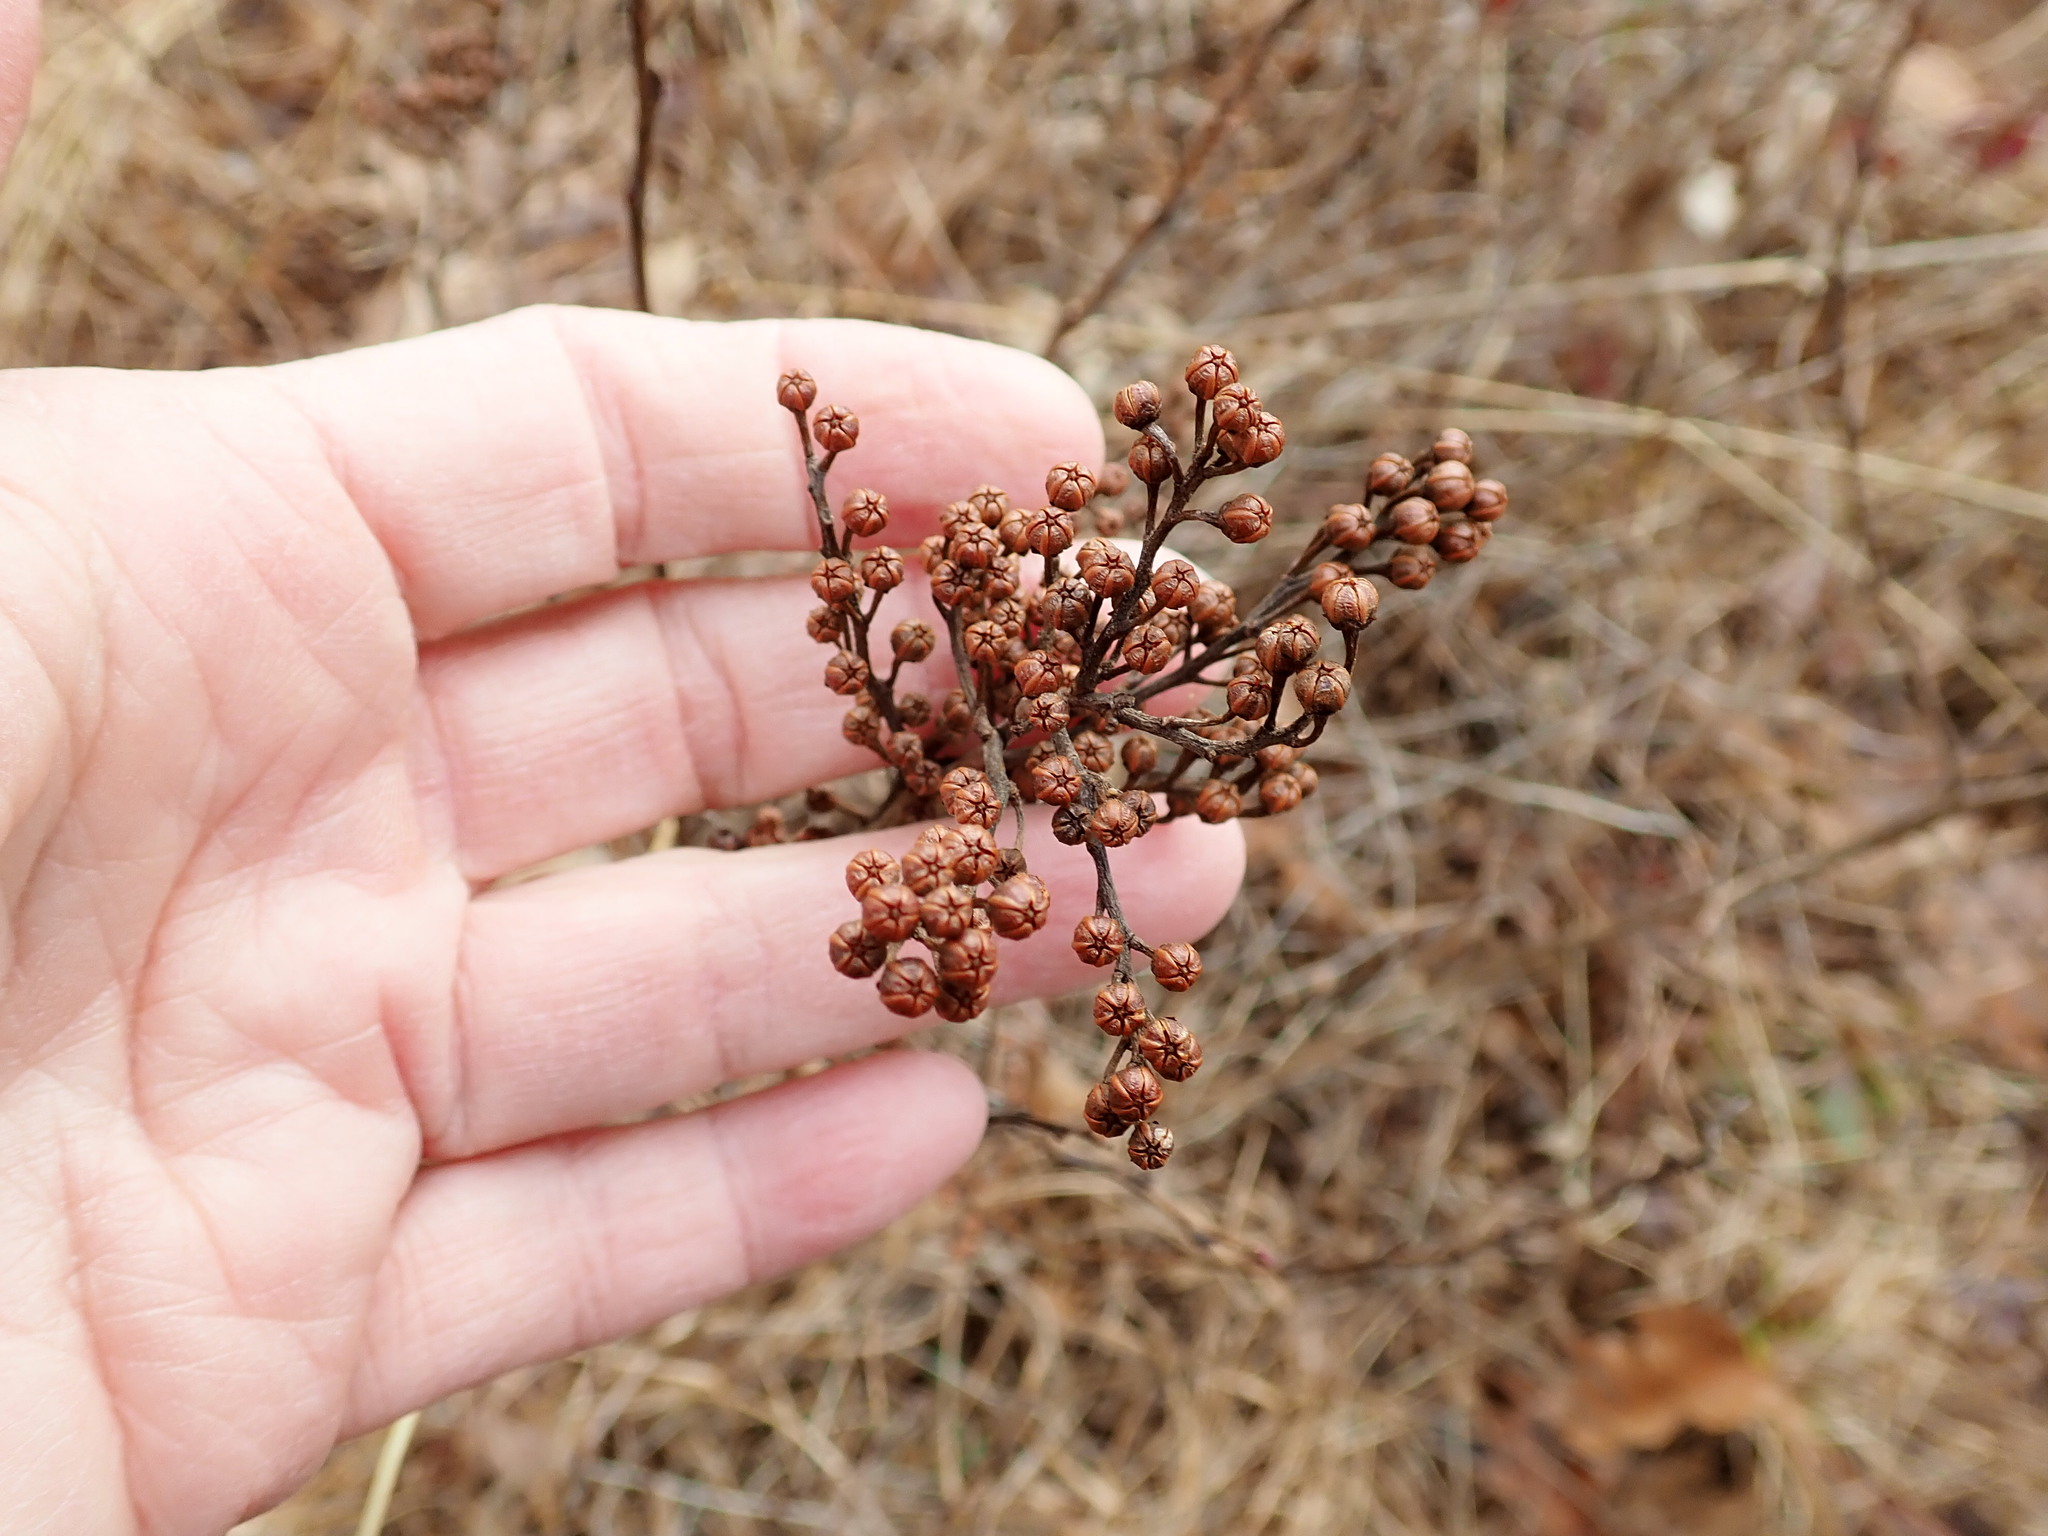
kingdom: Plantae
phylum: Tracheophyta
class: Magnoliopsida
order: Ericales
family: Ericaceae
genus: Lyonia
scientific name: Lyonia ligustrina
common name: Maleberry
